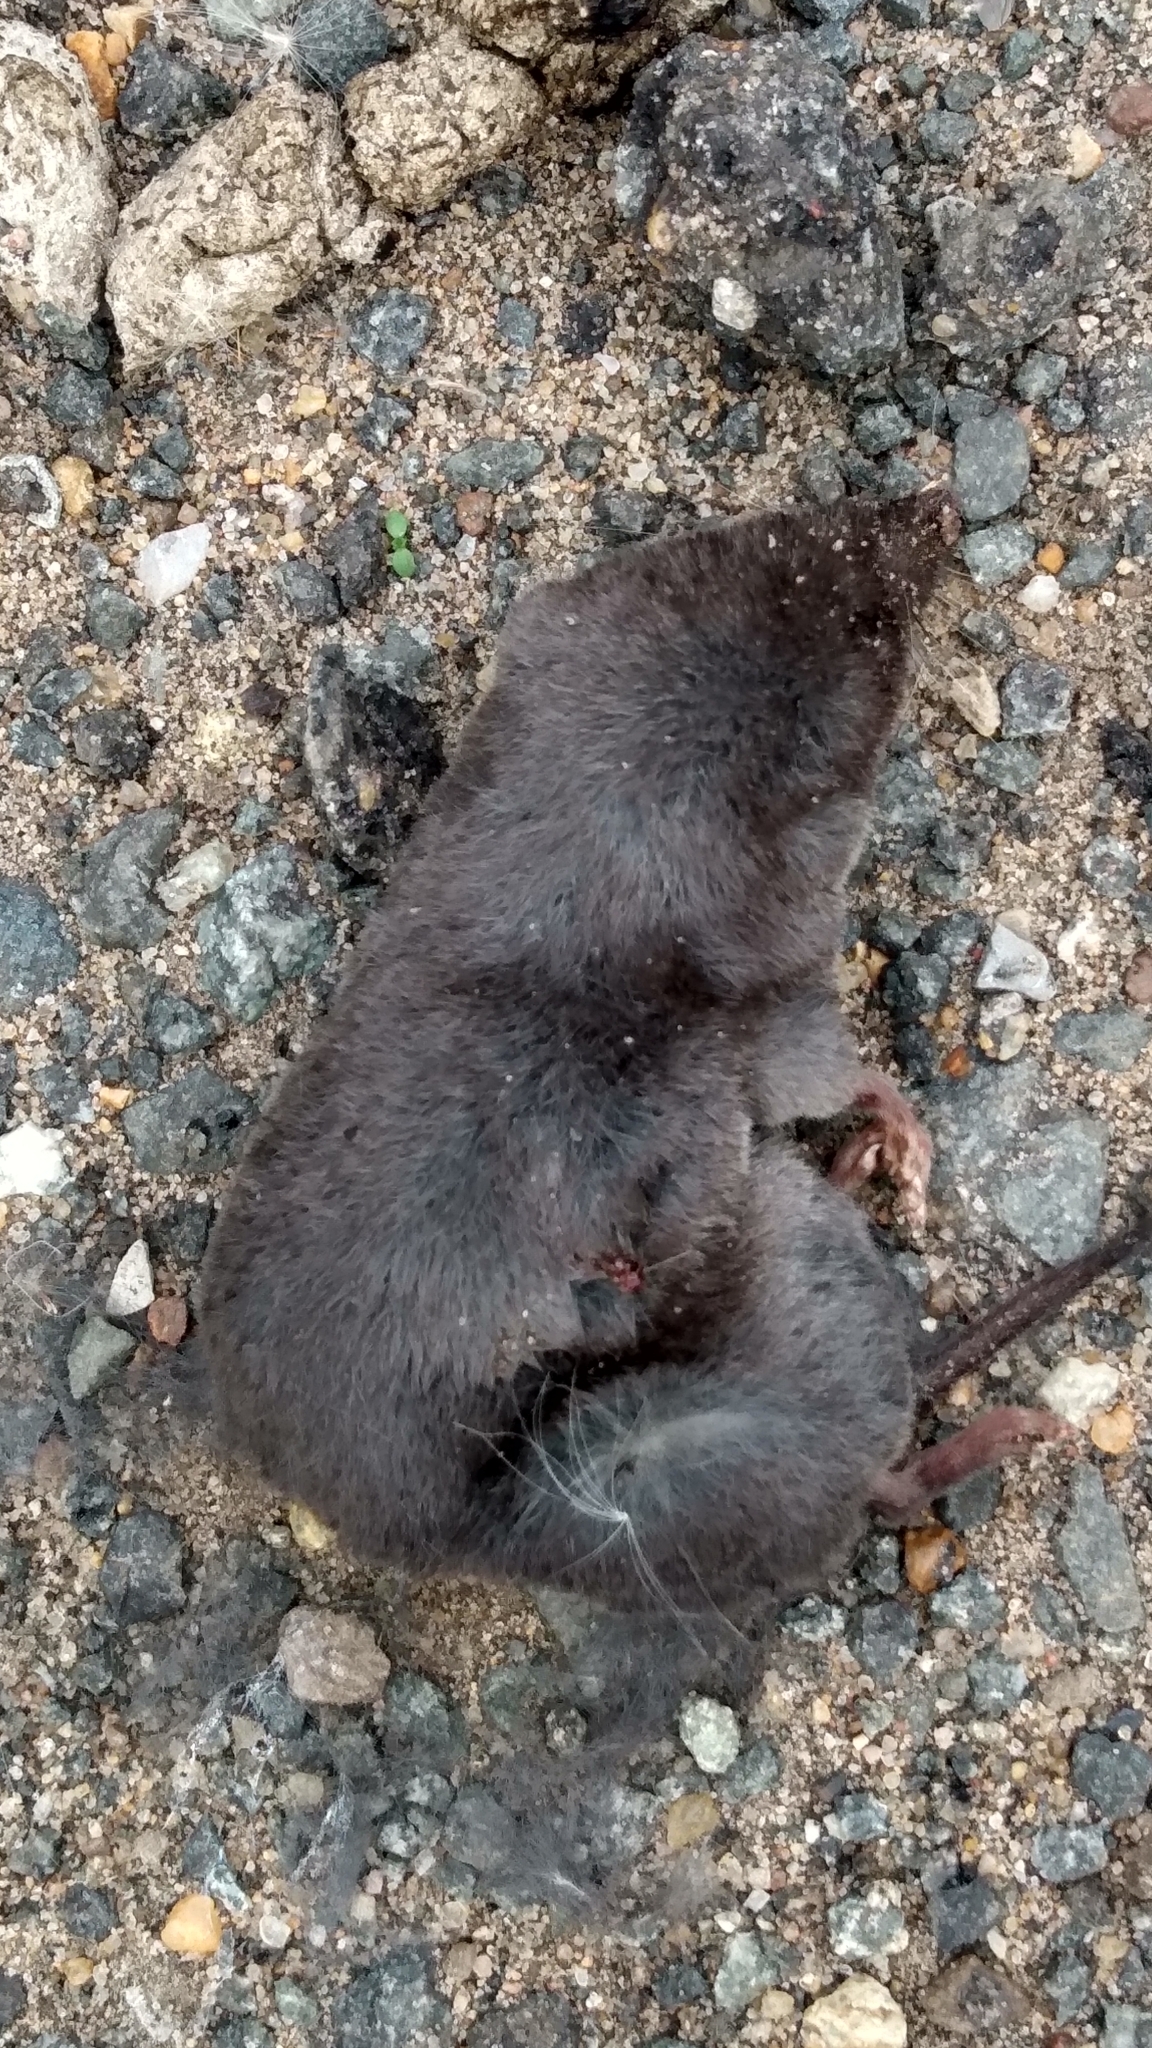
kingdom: Animalia
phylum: Chordata
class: Mammalia
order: Soricomorpha
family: Soricidae
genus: Blarina
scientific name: Blarina brevicauda
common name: Northern short-tailed shrew
